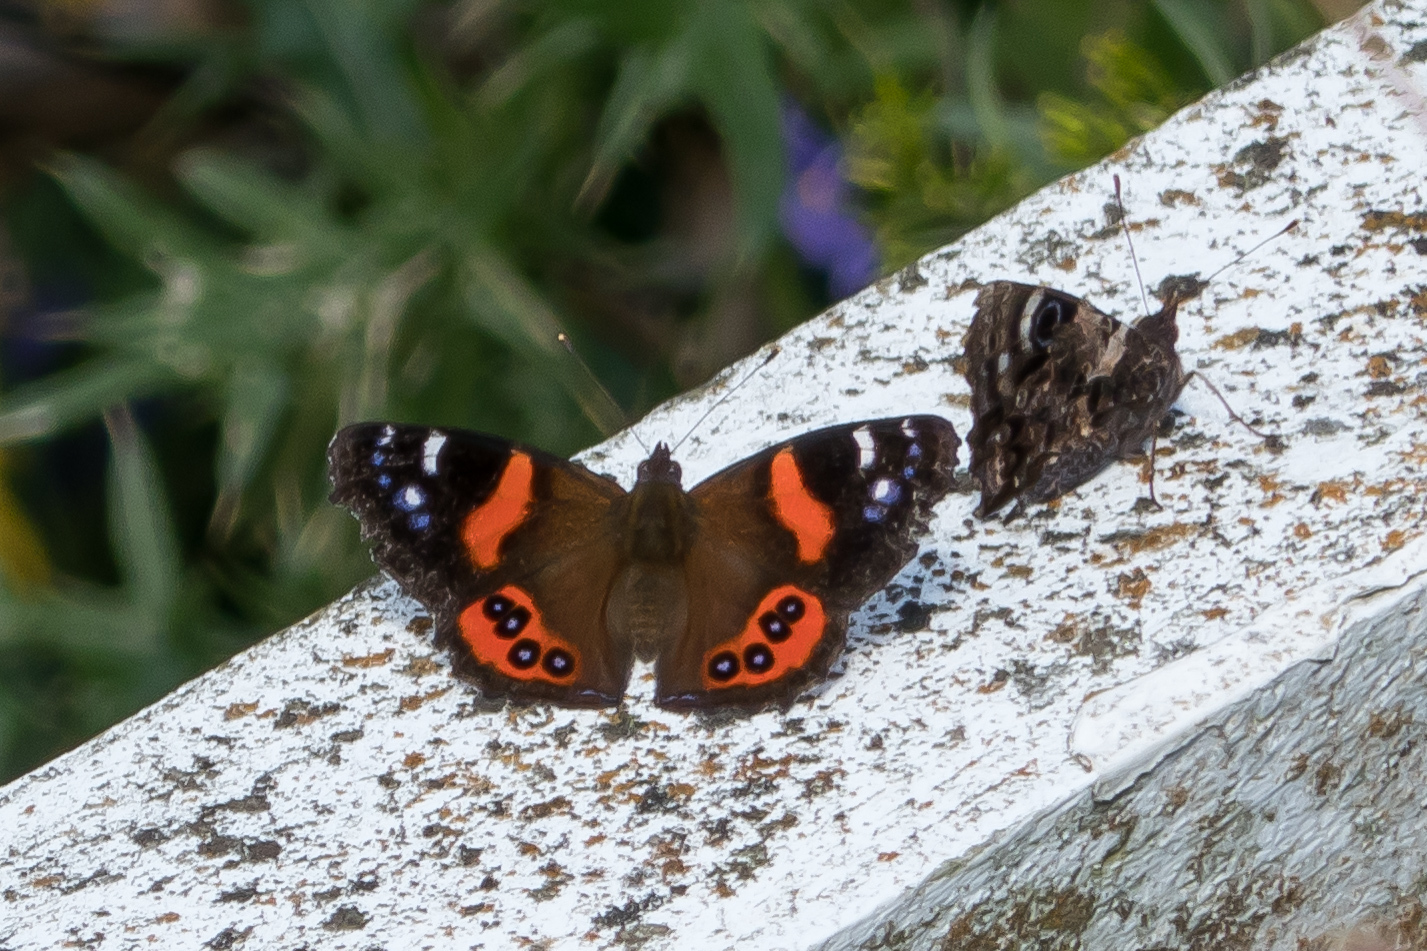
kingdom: Animalia
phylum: Arthropoda
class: Insecta
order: Lepidoptera
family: Nymphalidae
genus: Vanessa
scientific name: Vanessa gonerilla
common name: New zealand red admiral
